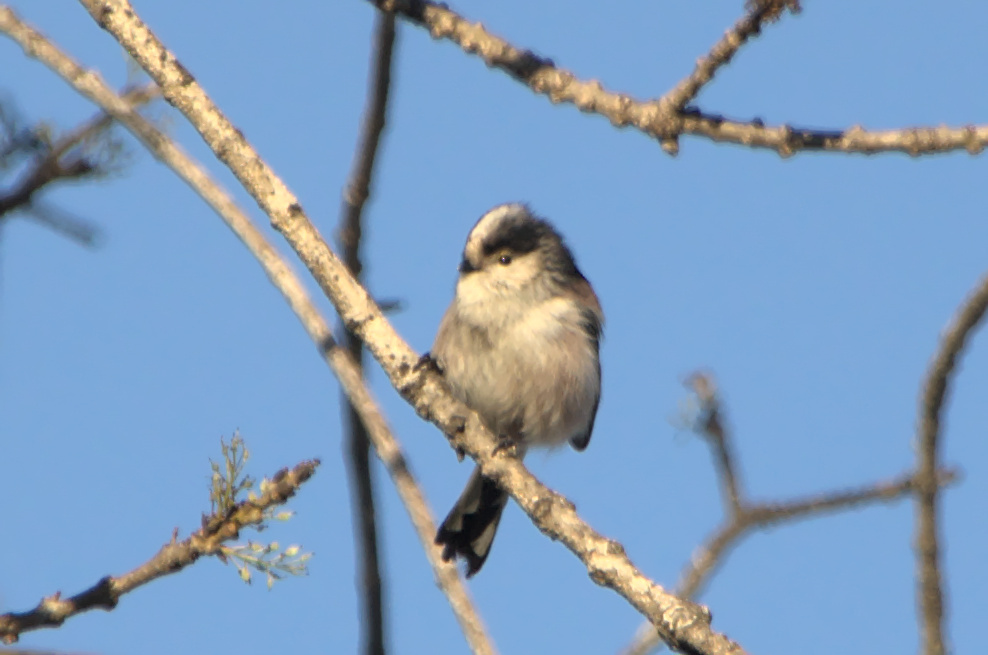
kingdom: Animalia
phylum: Chordata
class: Aves
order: Passeriformes
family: Aegithalidae
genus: Aegithalos
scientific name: Aegithalos caudatus
